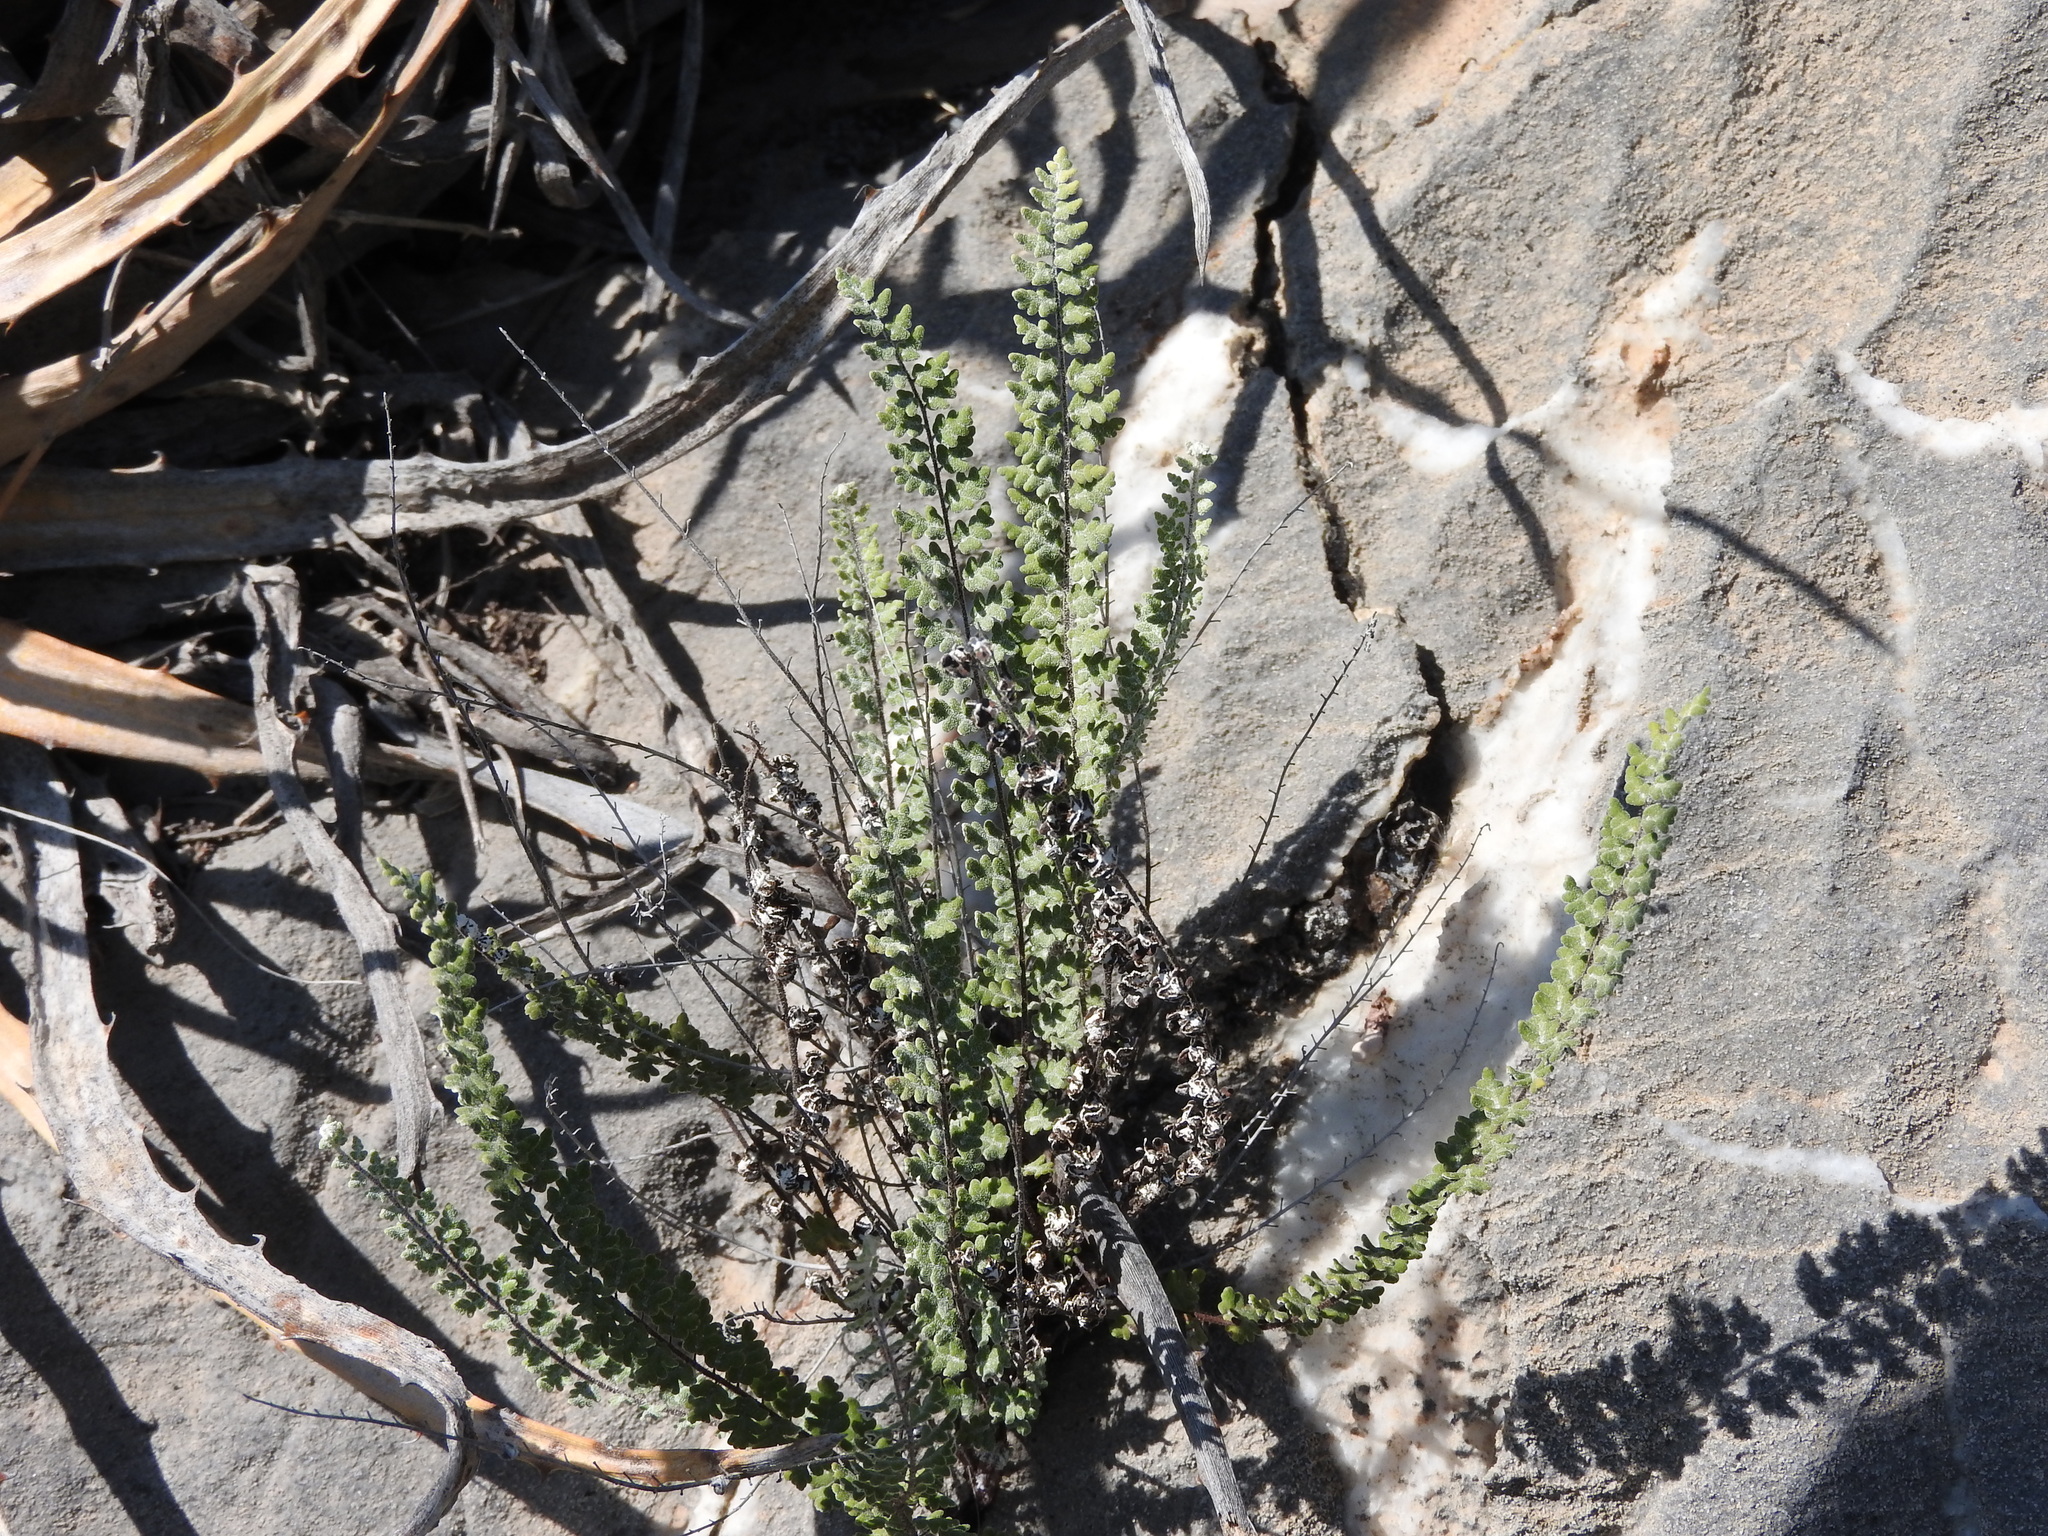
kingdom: Plantae
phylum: Tracheophyta
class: Polypodiopsida
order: Polypodiales
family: Pteridaceae
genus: Notholaena
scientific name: Notholaena affinis
